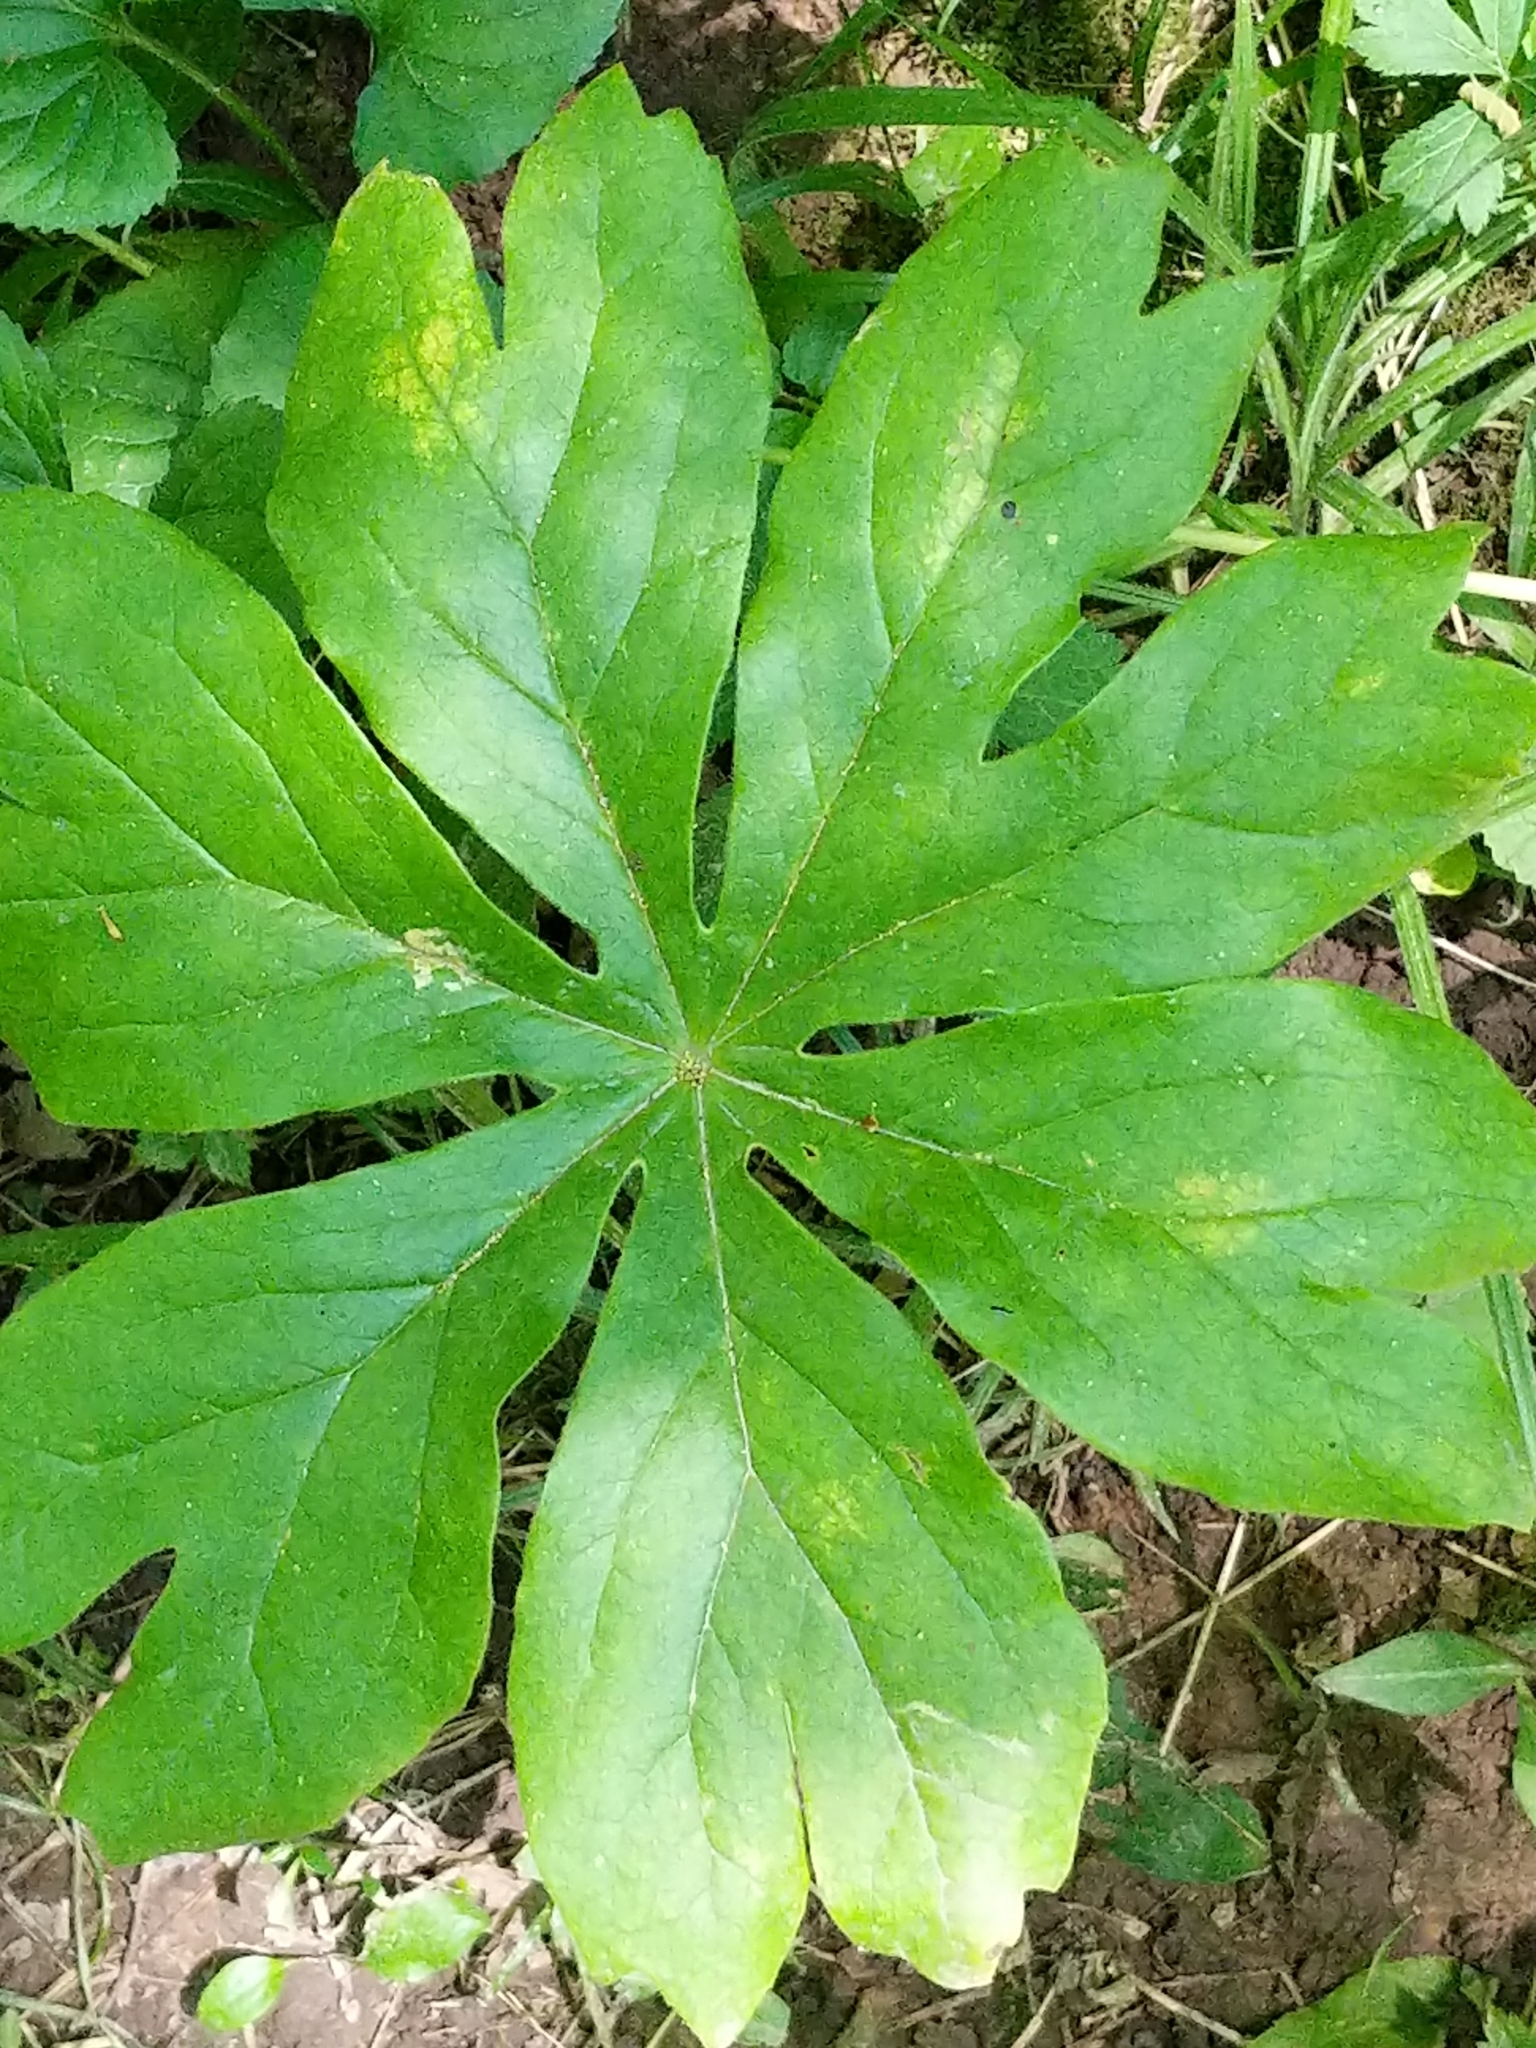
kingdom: Plantae
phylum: Tracheophyta
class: Magnoliopsida
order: Ranunculales
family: Berberidaceae
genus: Podophyllum
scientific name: Podophyllum peltatum
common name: Wild mandrake
